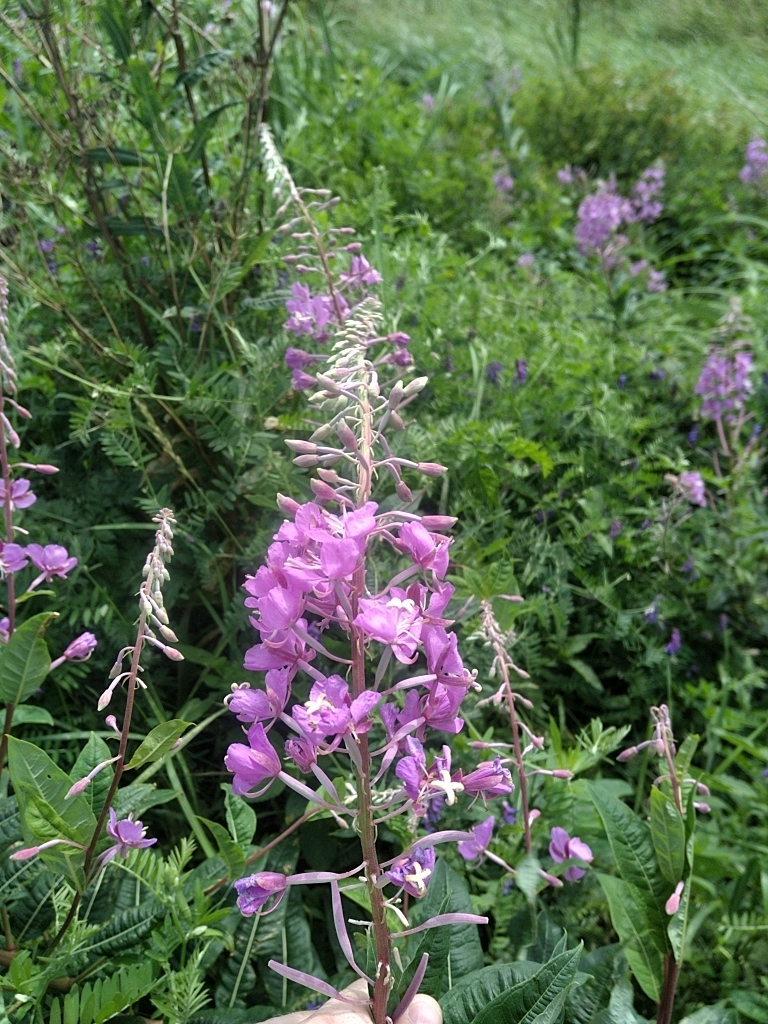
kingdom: Plantae
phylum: Tracheophyta
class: Magnoliopsida
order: Myrtales
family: Onagraceae
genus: Chamaenerion
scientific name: Chamaenerion angustifolium
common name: Fireweed
